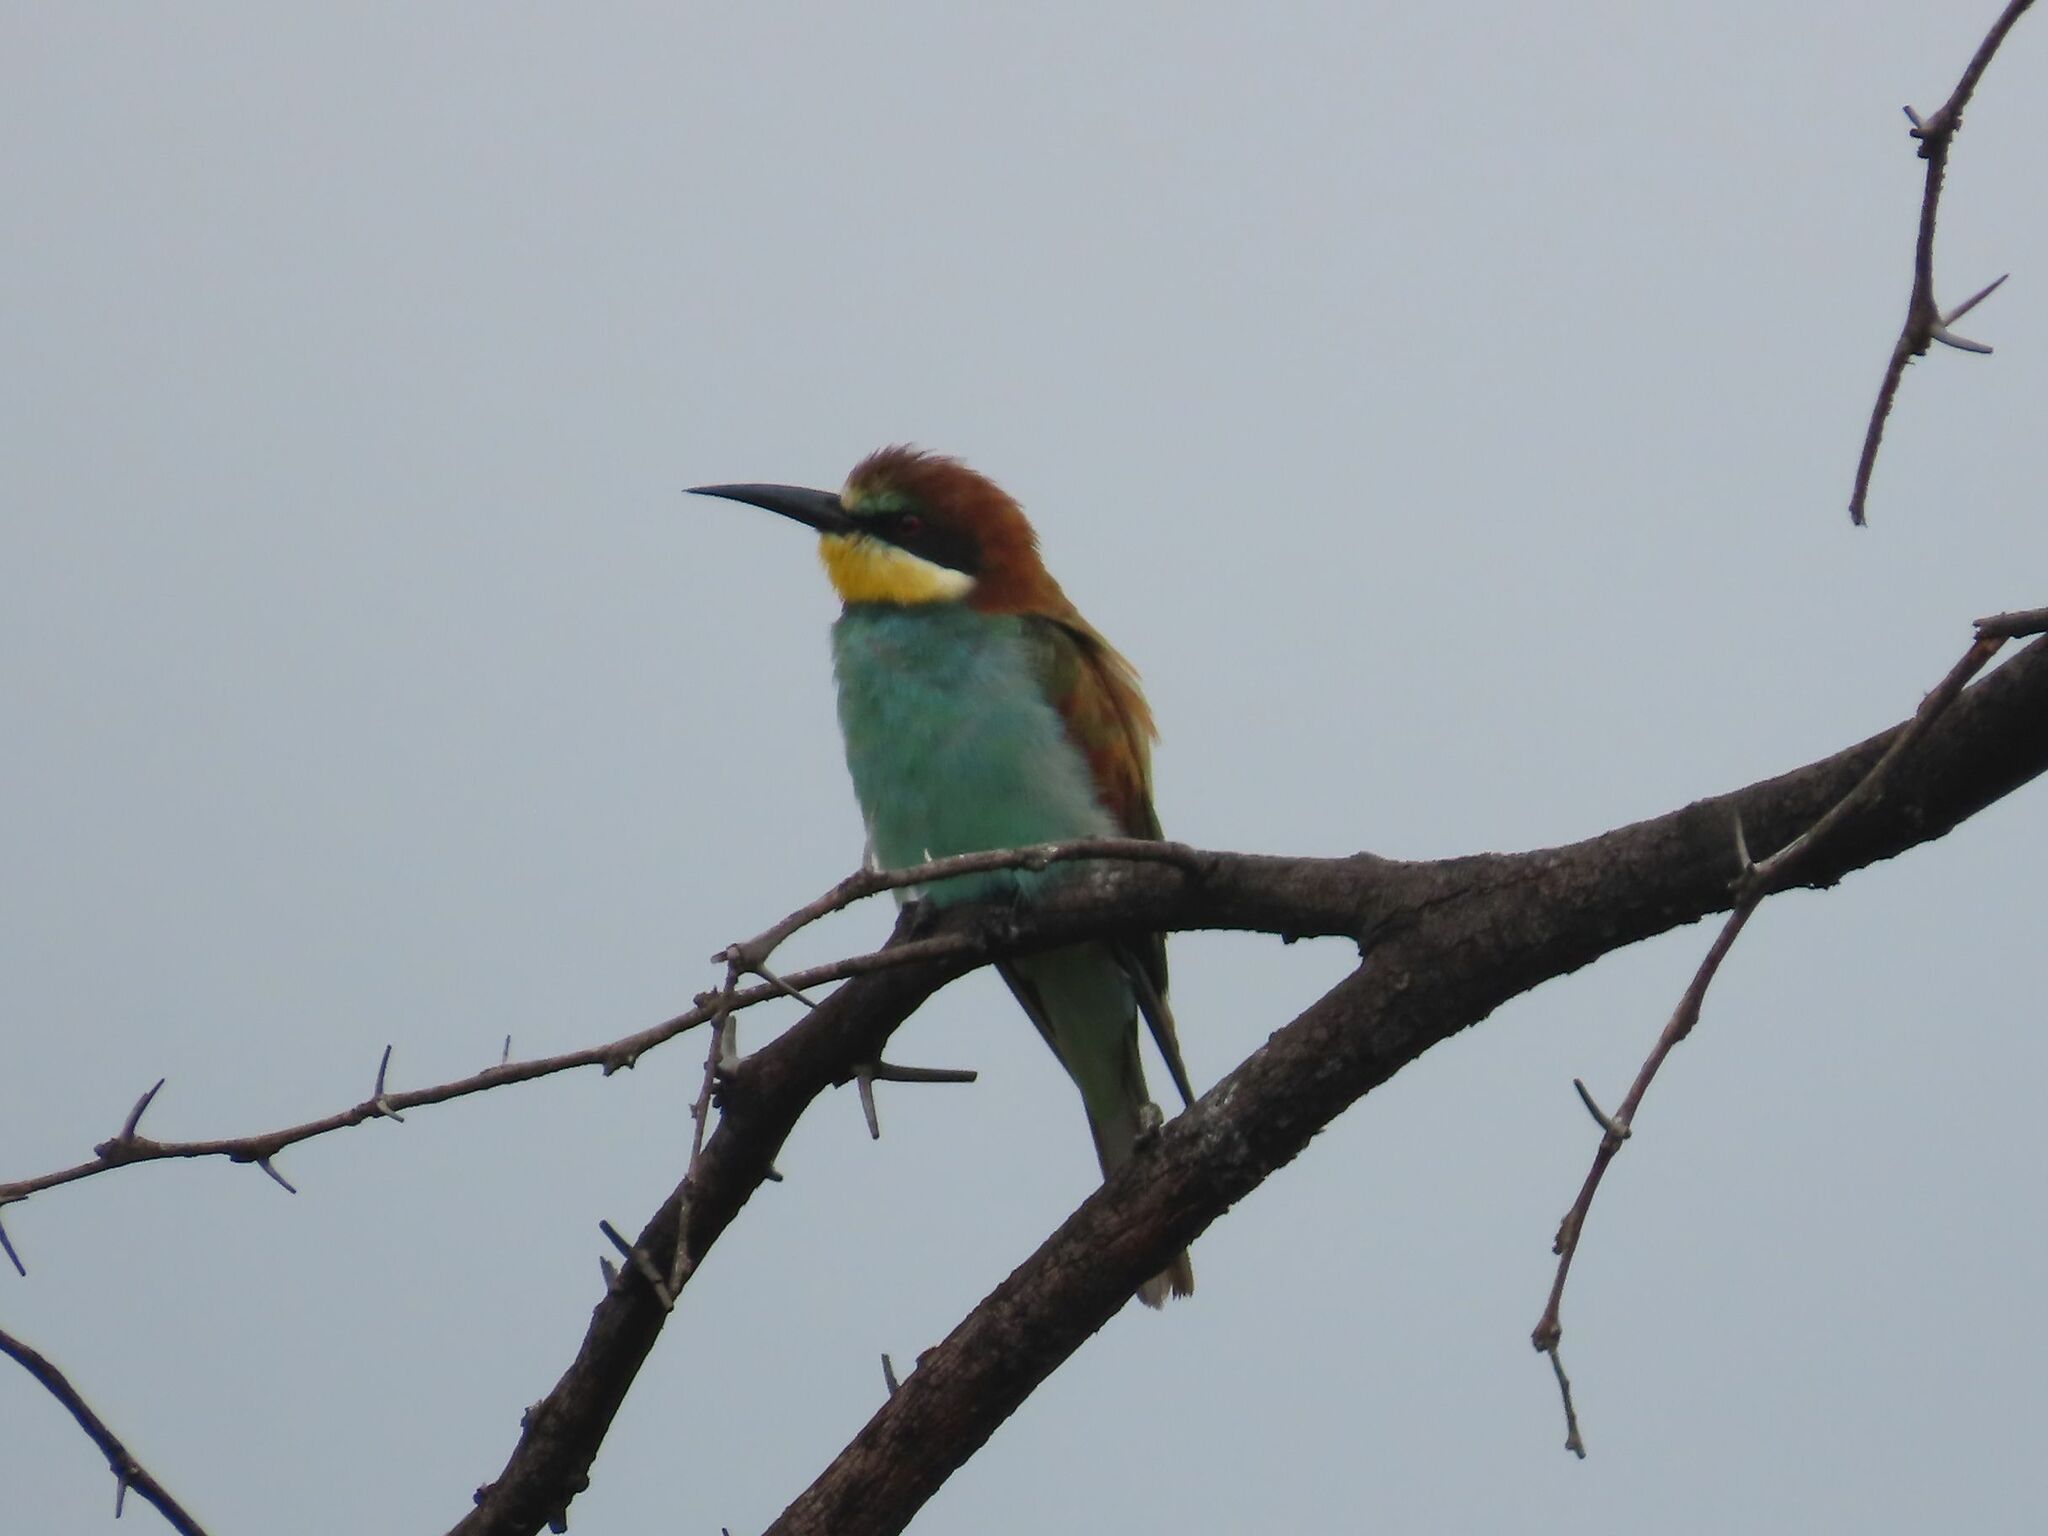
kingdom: Animalia
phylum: Chordata
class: Aves
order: Coraciiformes
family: Meropidae
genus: Merops
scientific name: Merops apiaster
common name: European bee-eater
